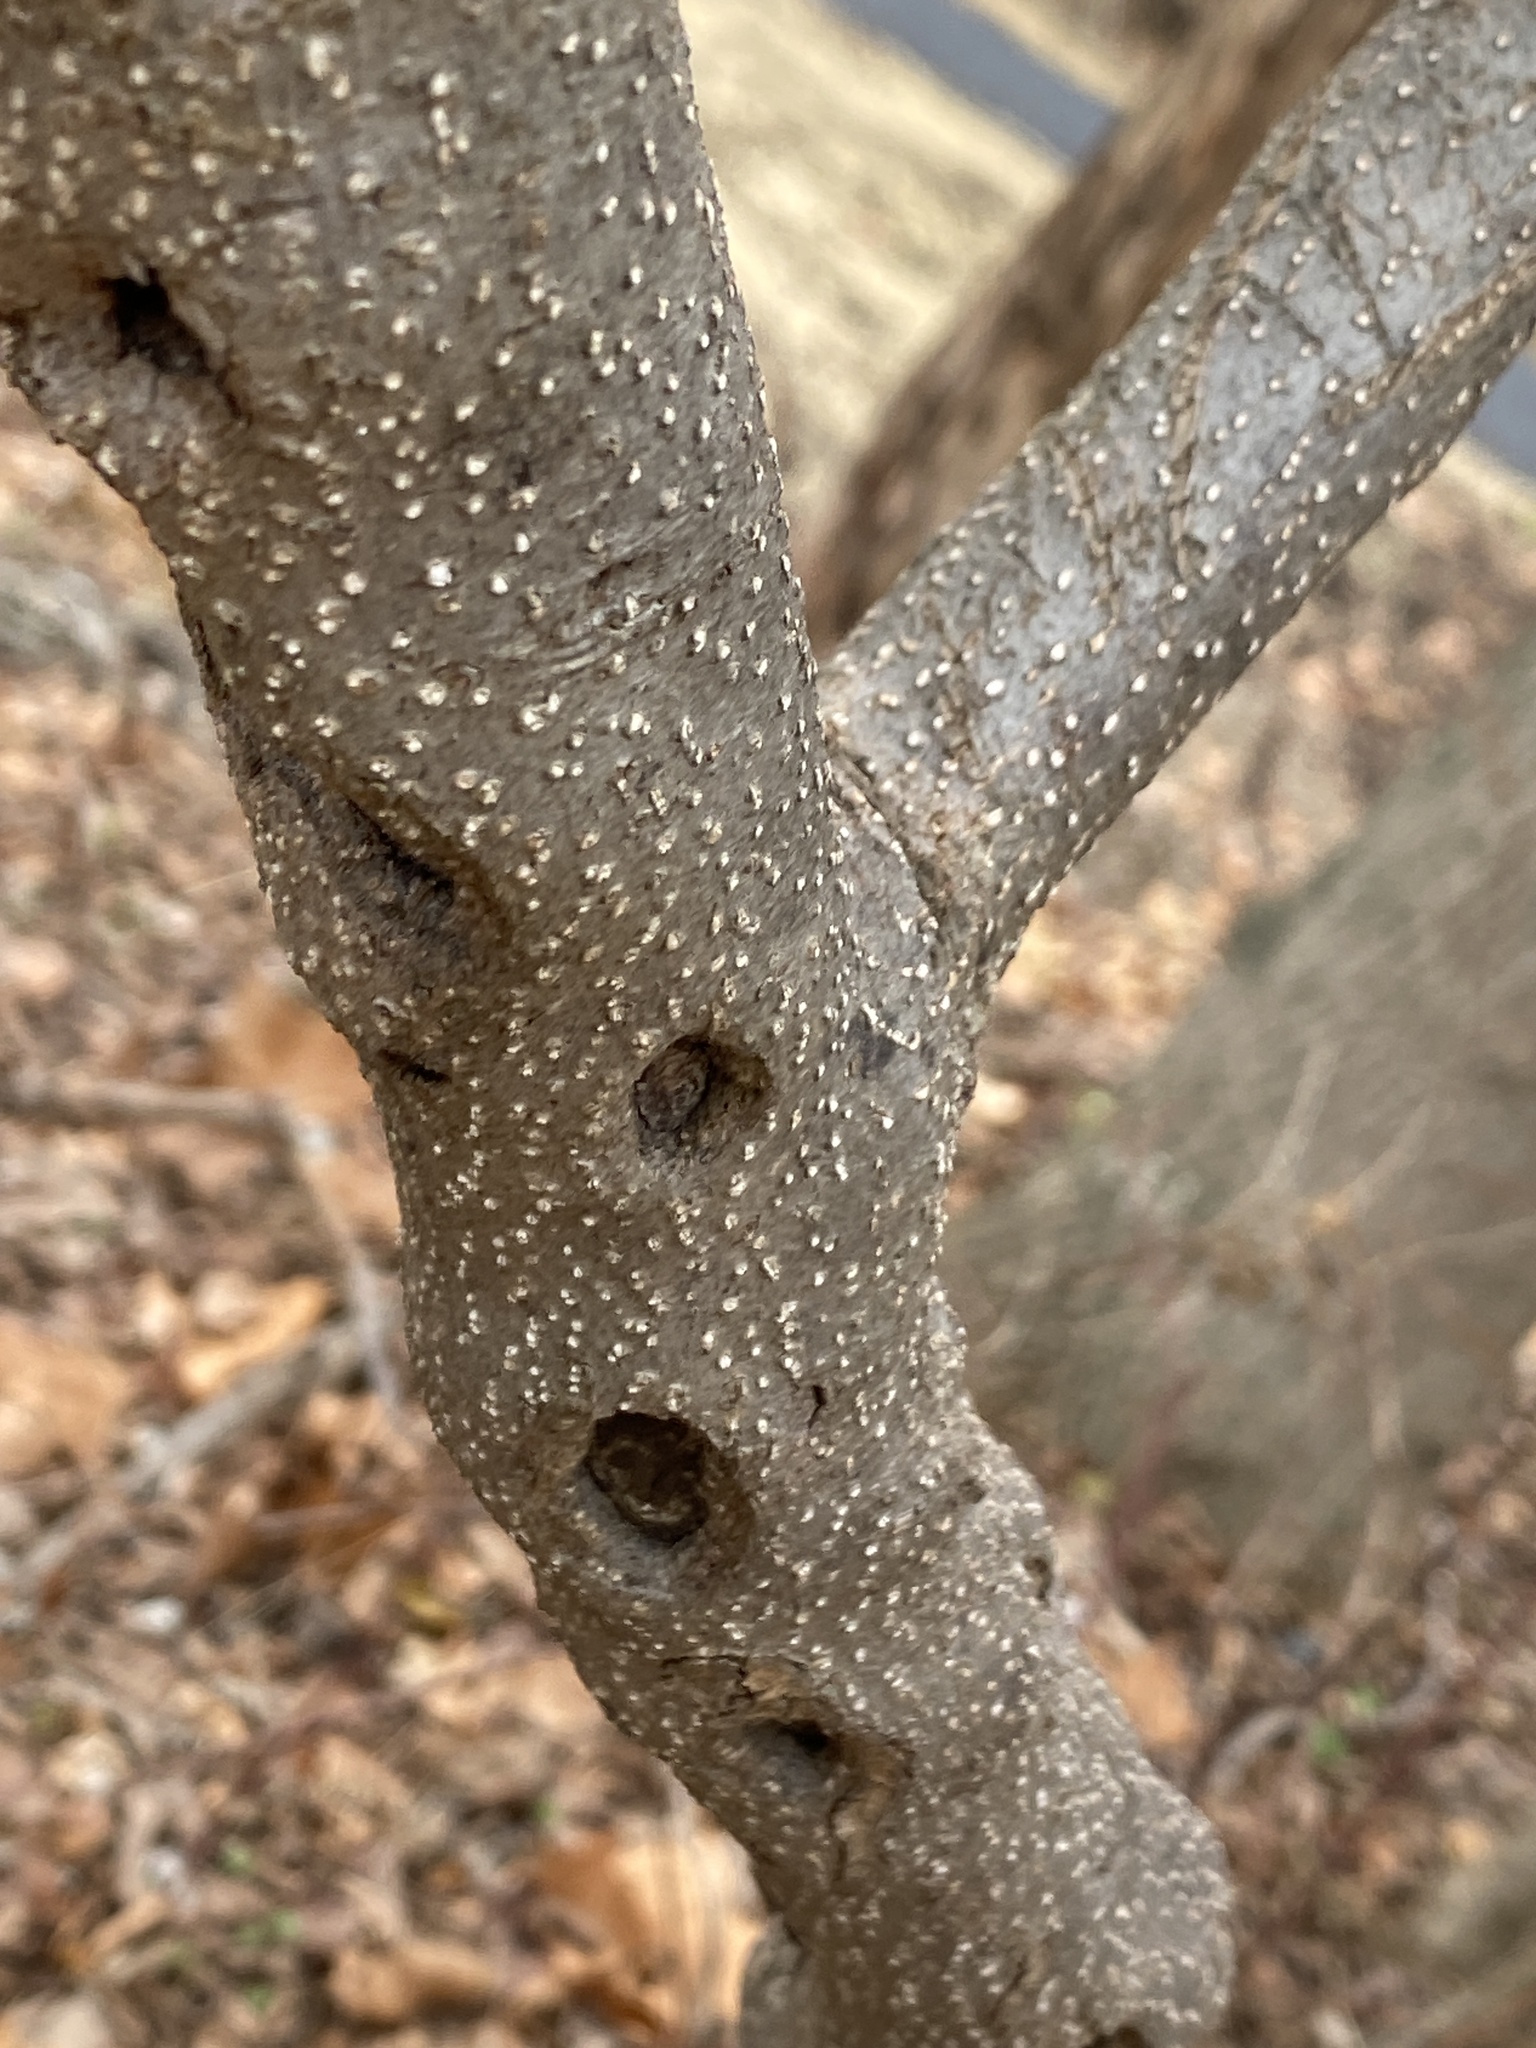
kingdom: Plantae
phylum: Tracheophyta
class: Magnoliopsida
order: Laurales
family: Lauraceae
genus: Lindera
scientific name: Lindera benzoin
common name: Spicebush
